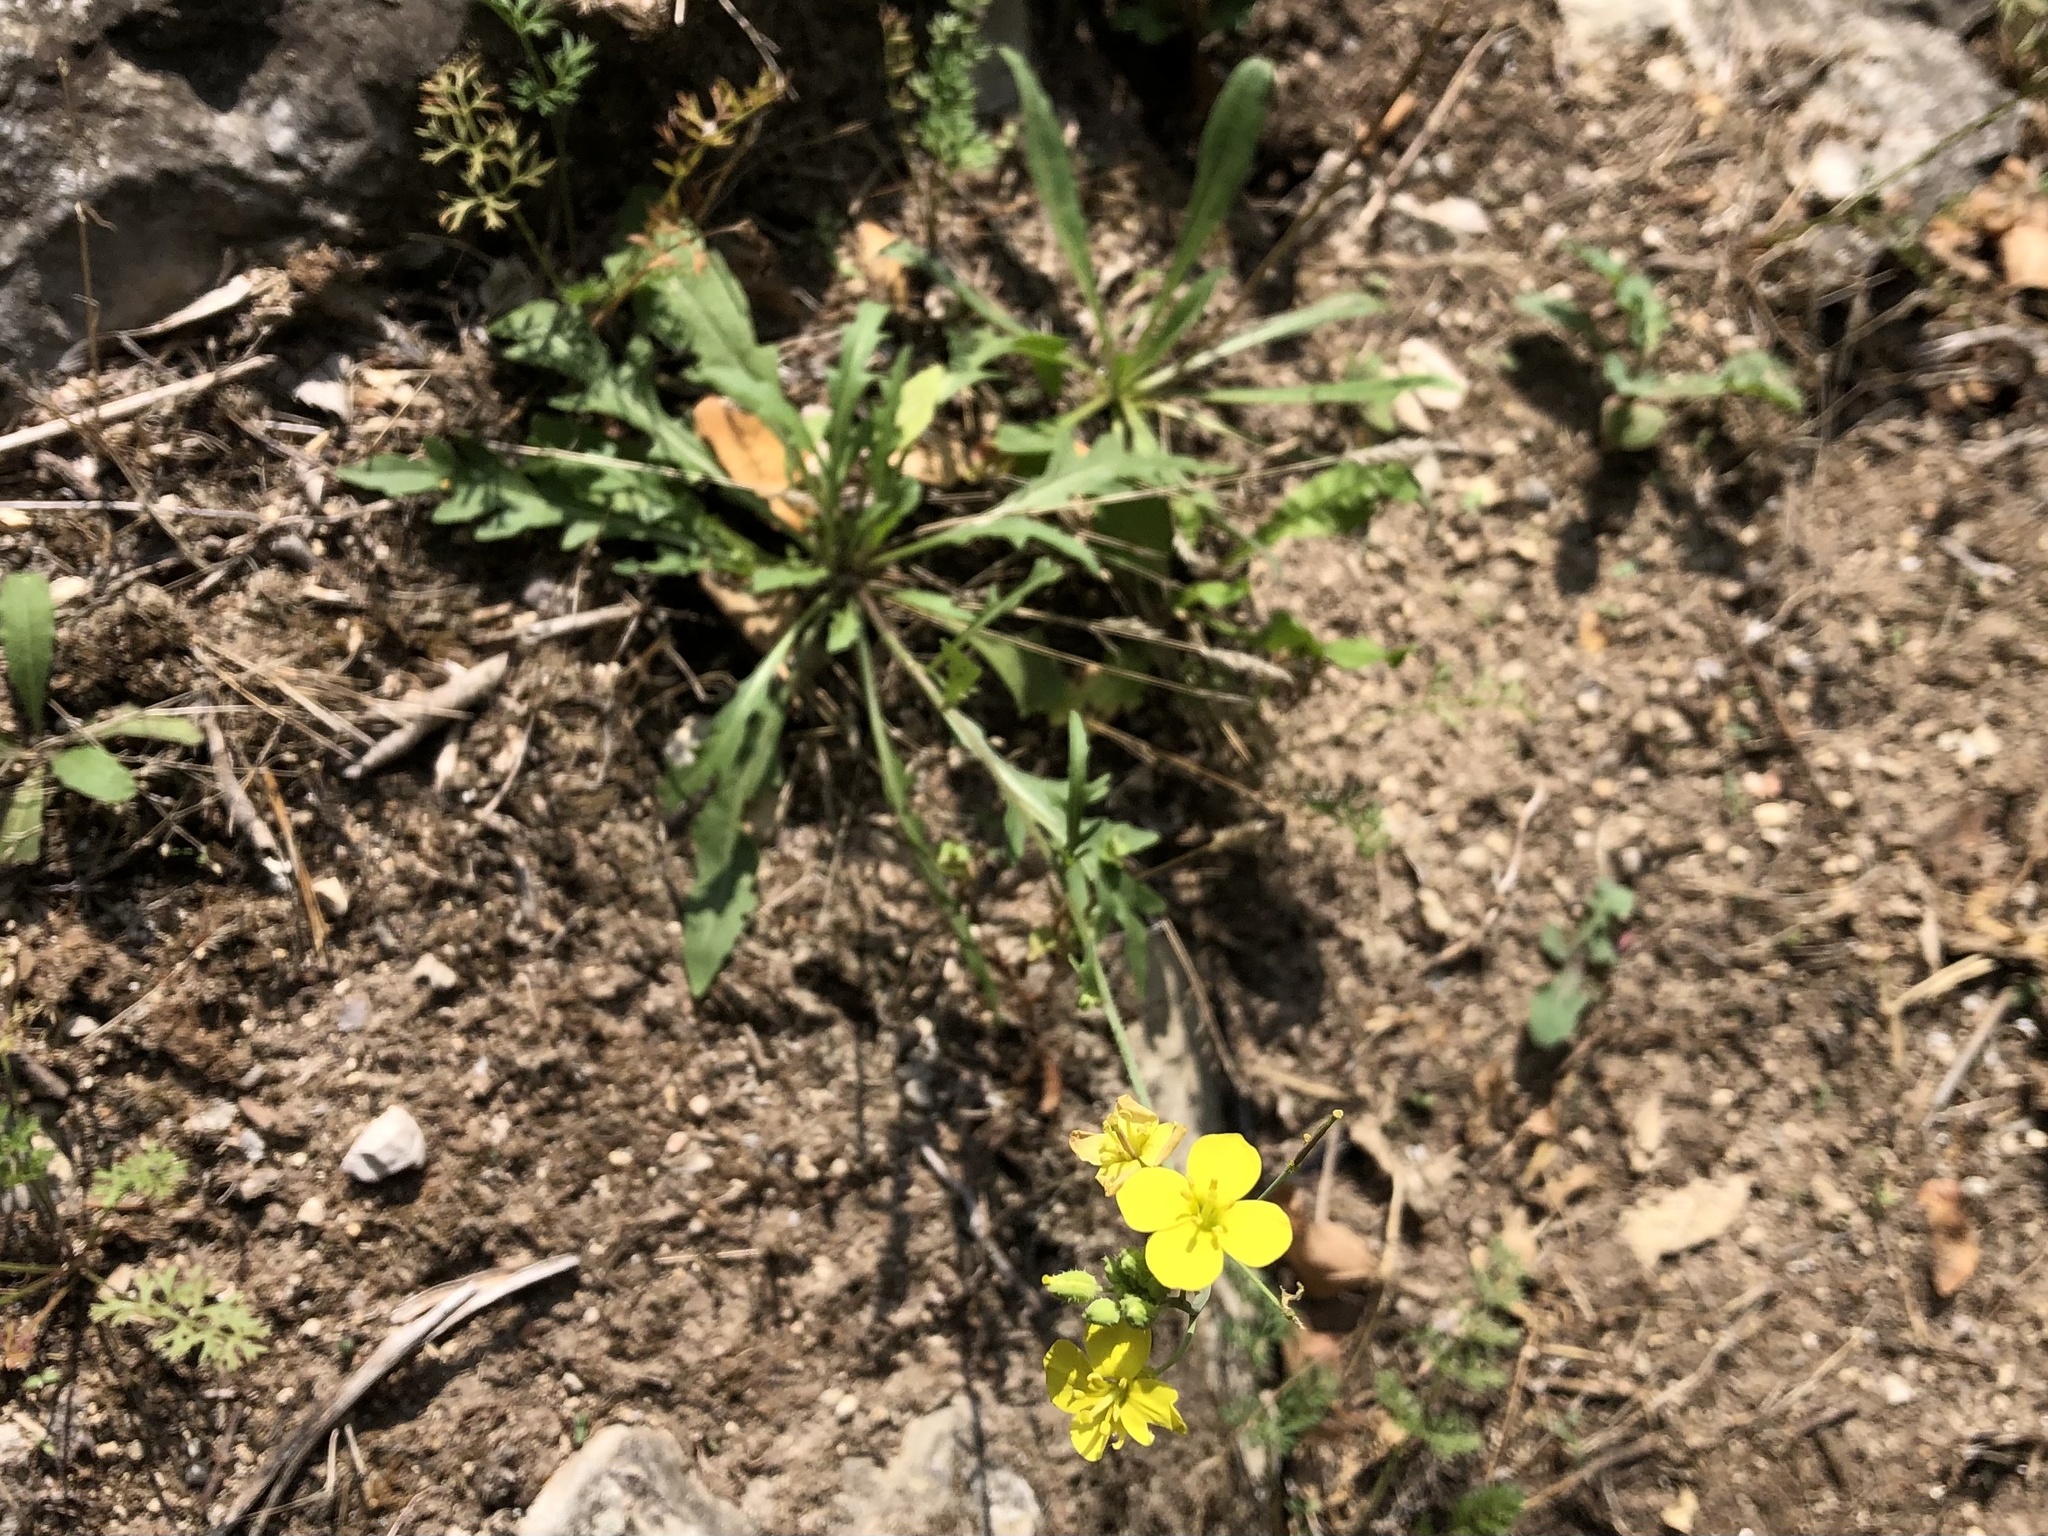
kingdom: Plantae
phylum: Tracheophyta
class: Magnoliopsida
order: Brassicales
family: Brassicaceae
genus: Diplotaxis
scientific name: Diplotaxis tenuifolia
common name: Perennial wall-rocket
